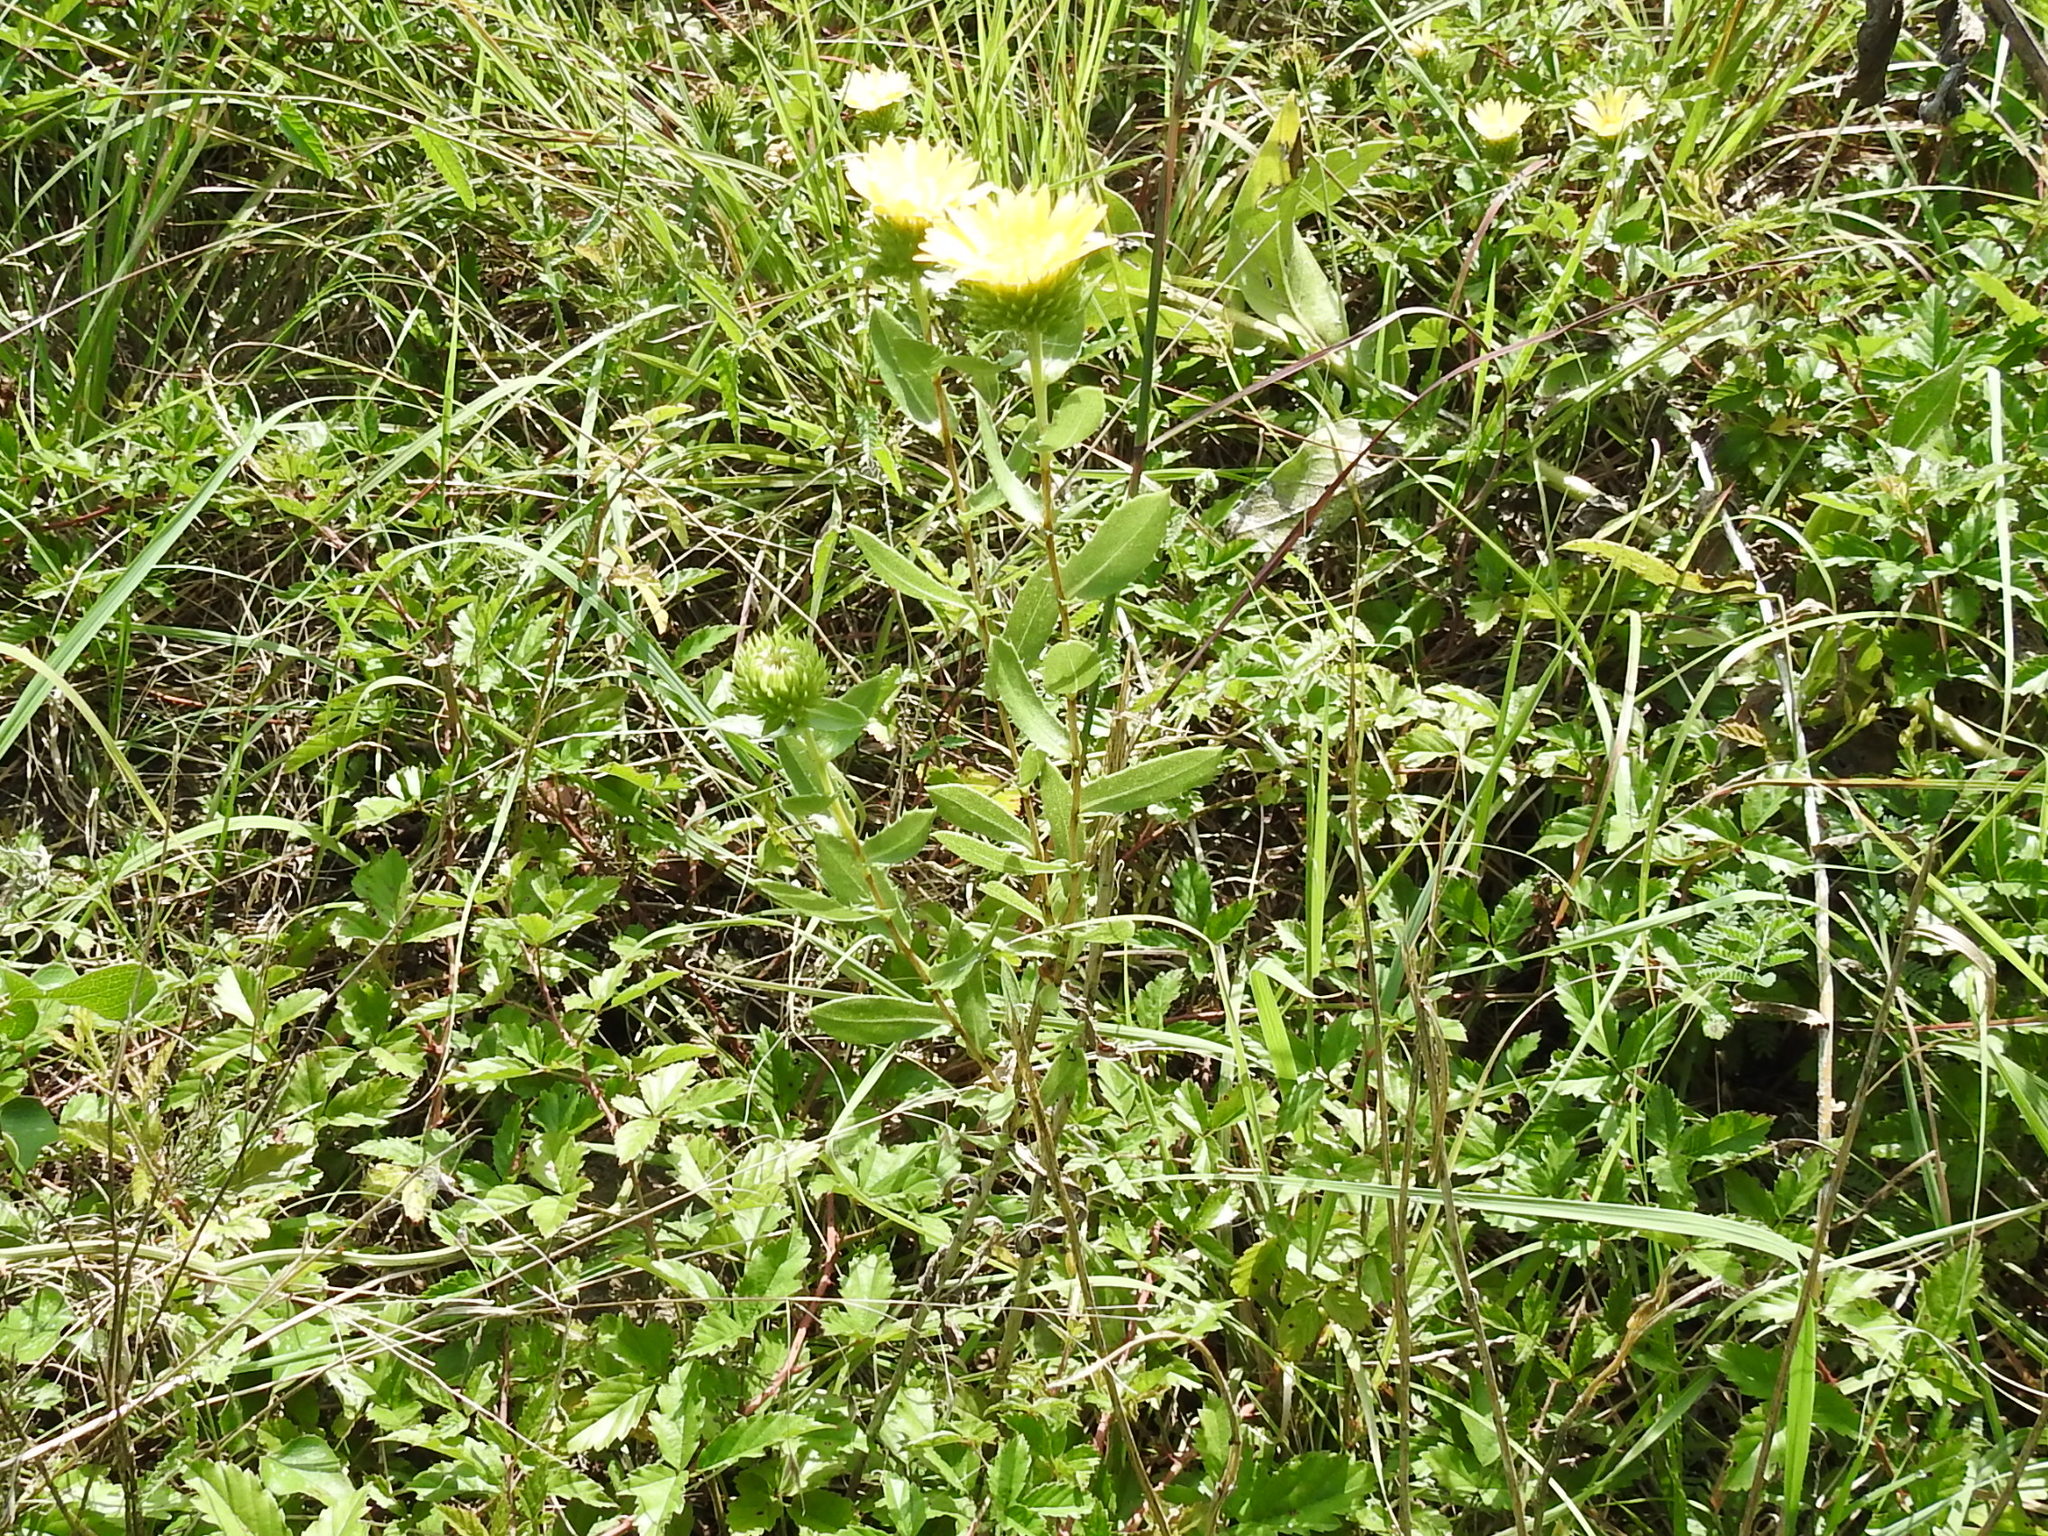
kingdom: Plantae
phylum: Tracheophyta
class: Magnoliopsida
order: Asterales
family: Asteraceae
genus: Grindelia
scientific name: Grindelia lanceolata
